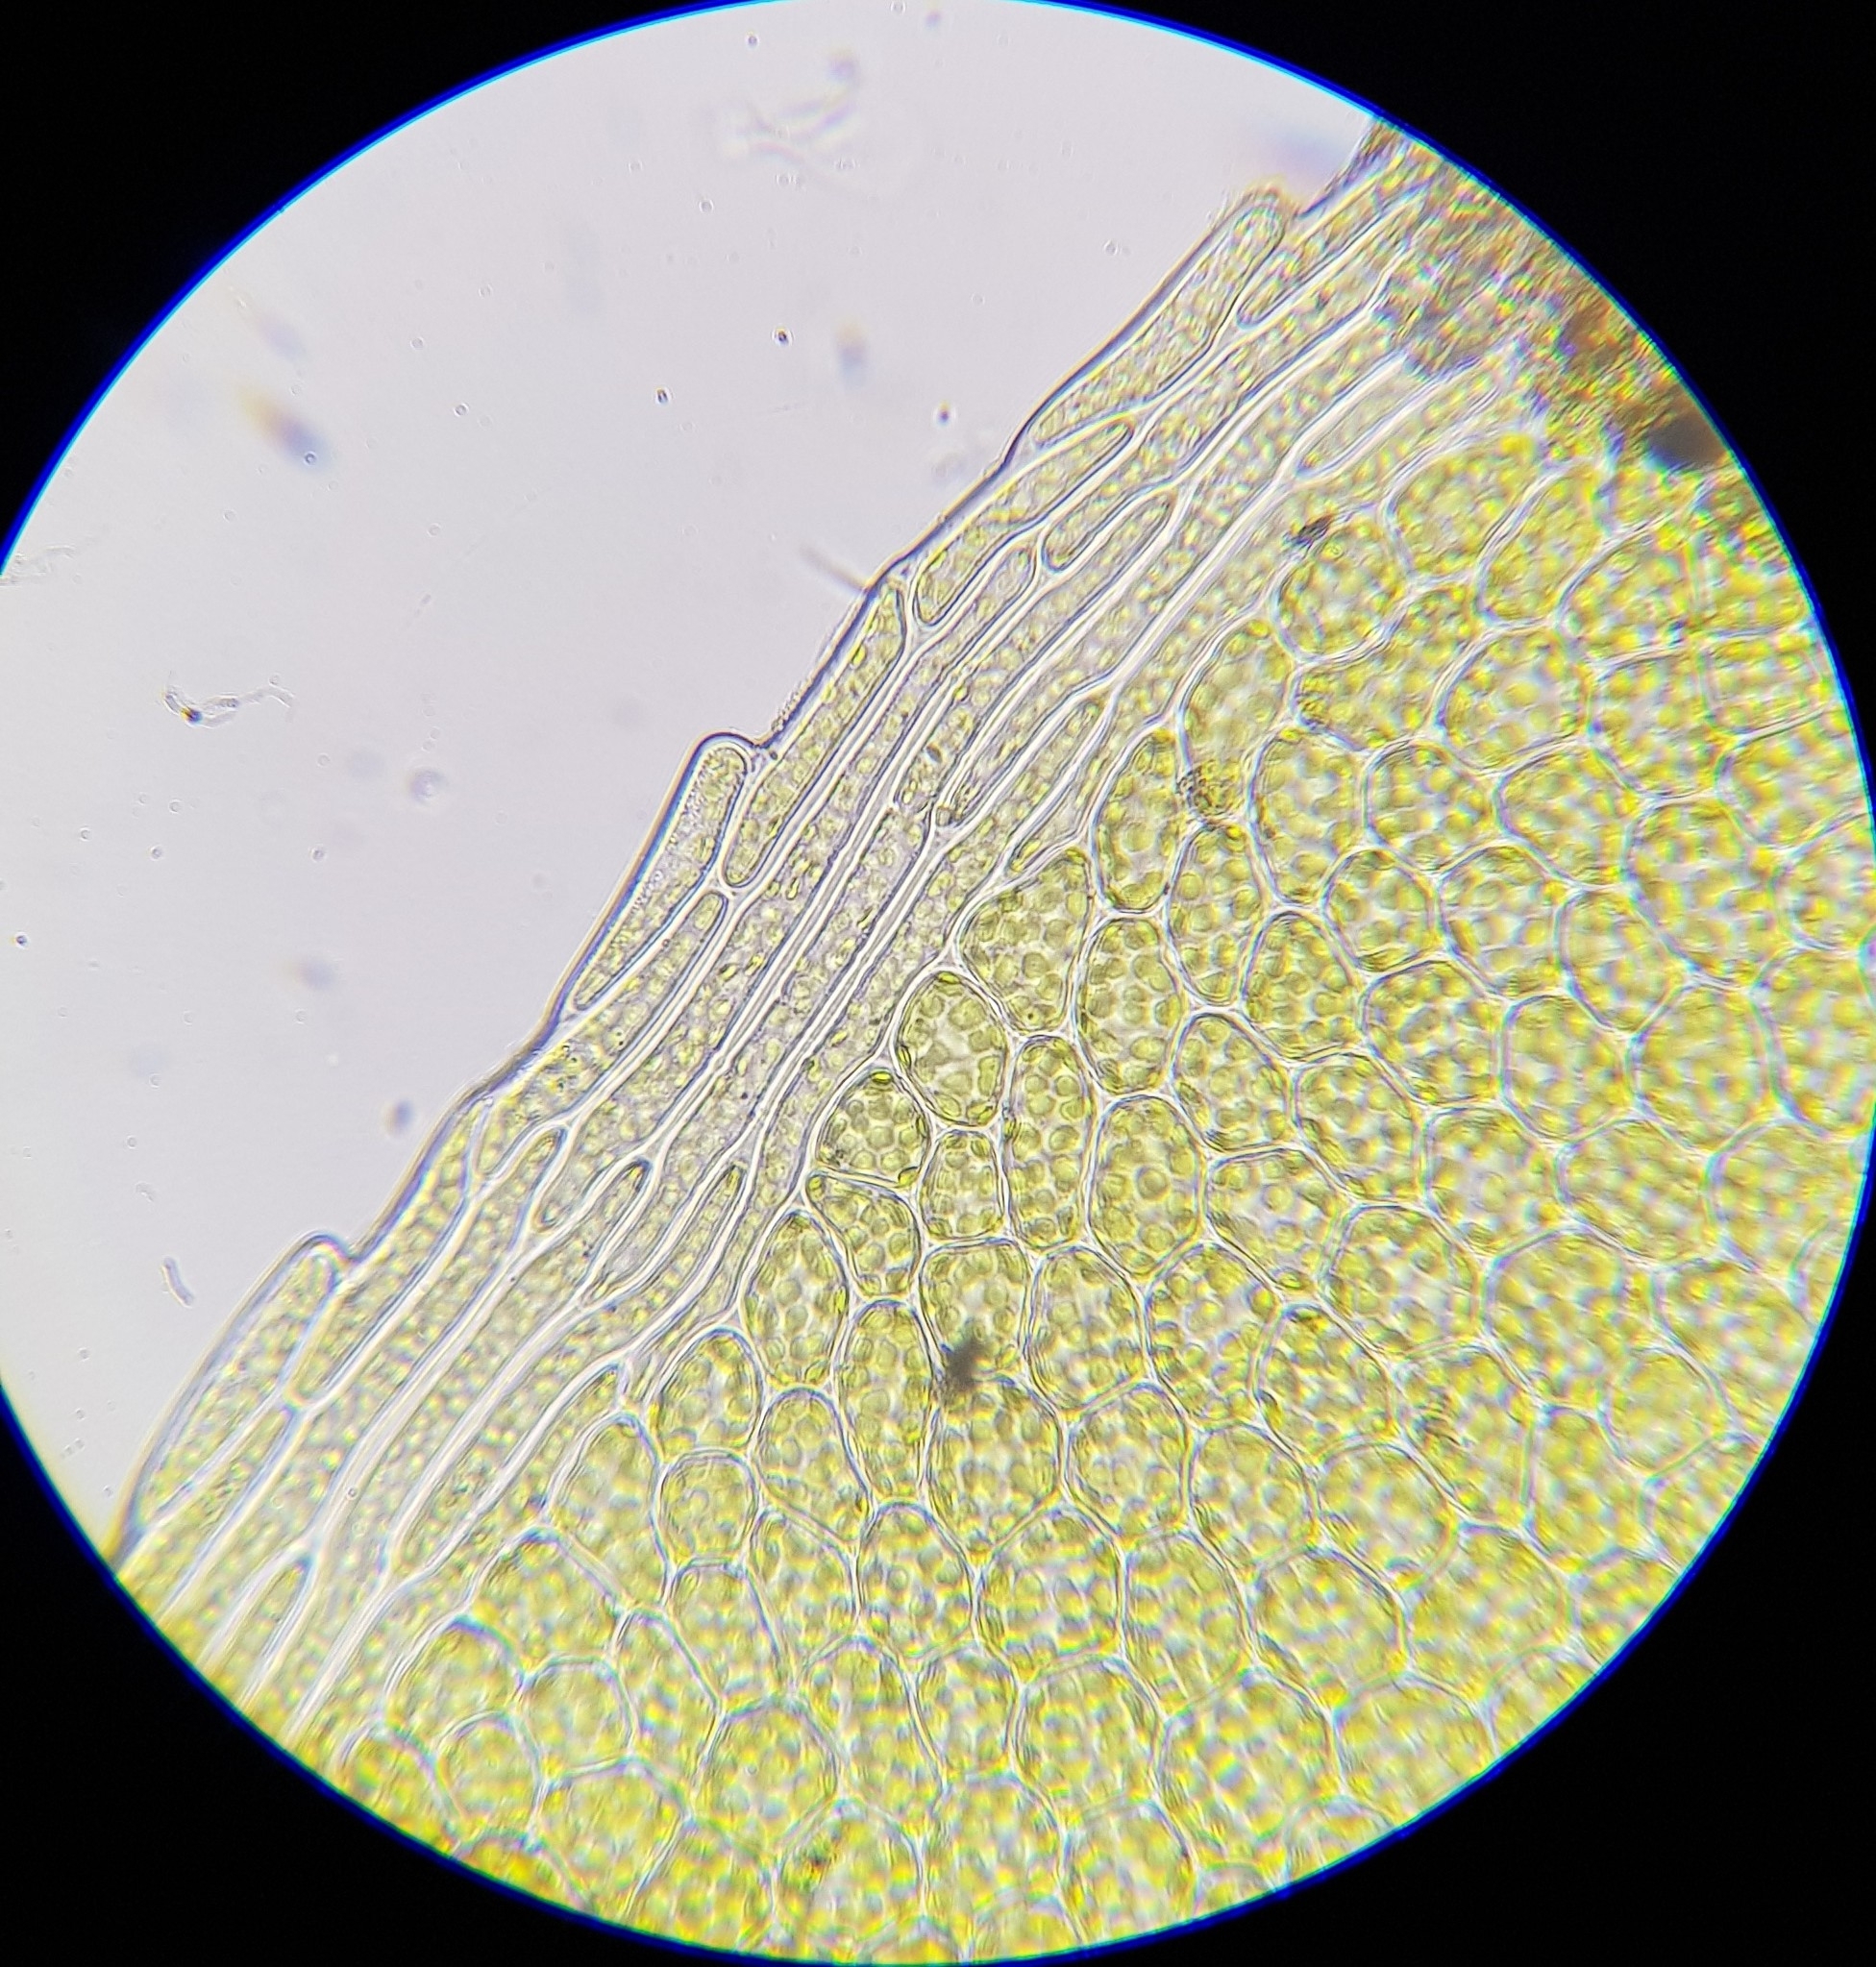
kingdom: Plantae
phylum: Bryophyta
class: Bryopsida
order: Bryales
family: Mniaceae
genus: Plagiomnium
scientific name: Plagiomnium rostratum
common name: Long-beaked leafy moss
